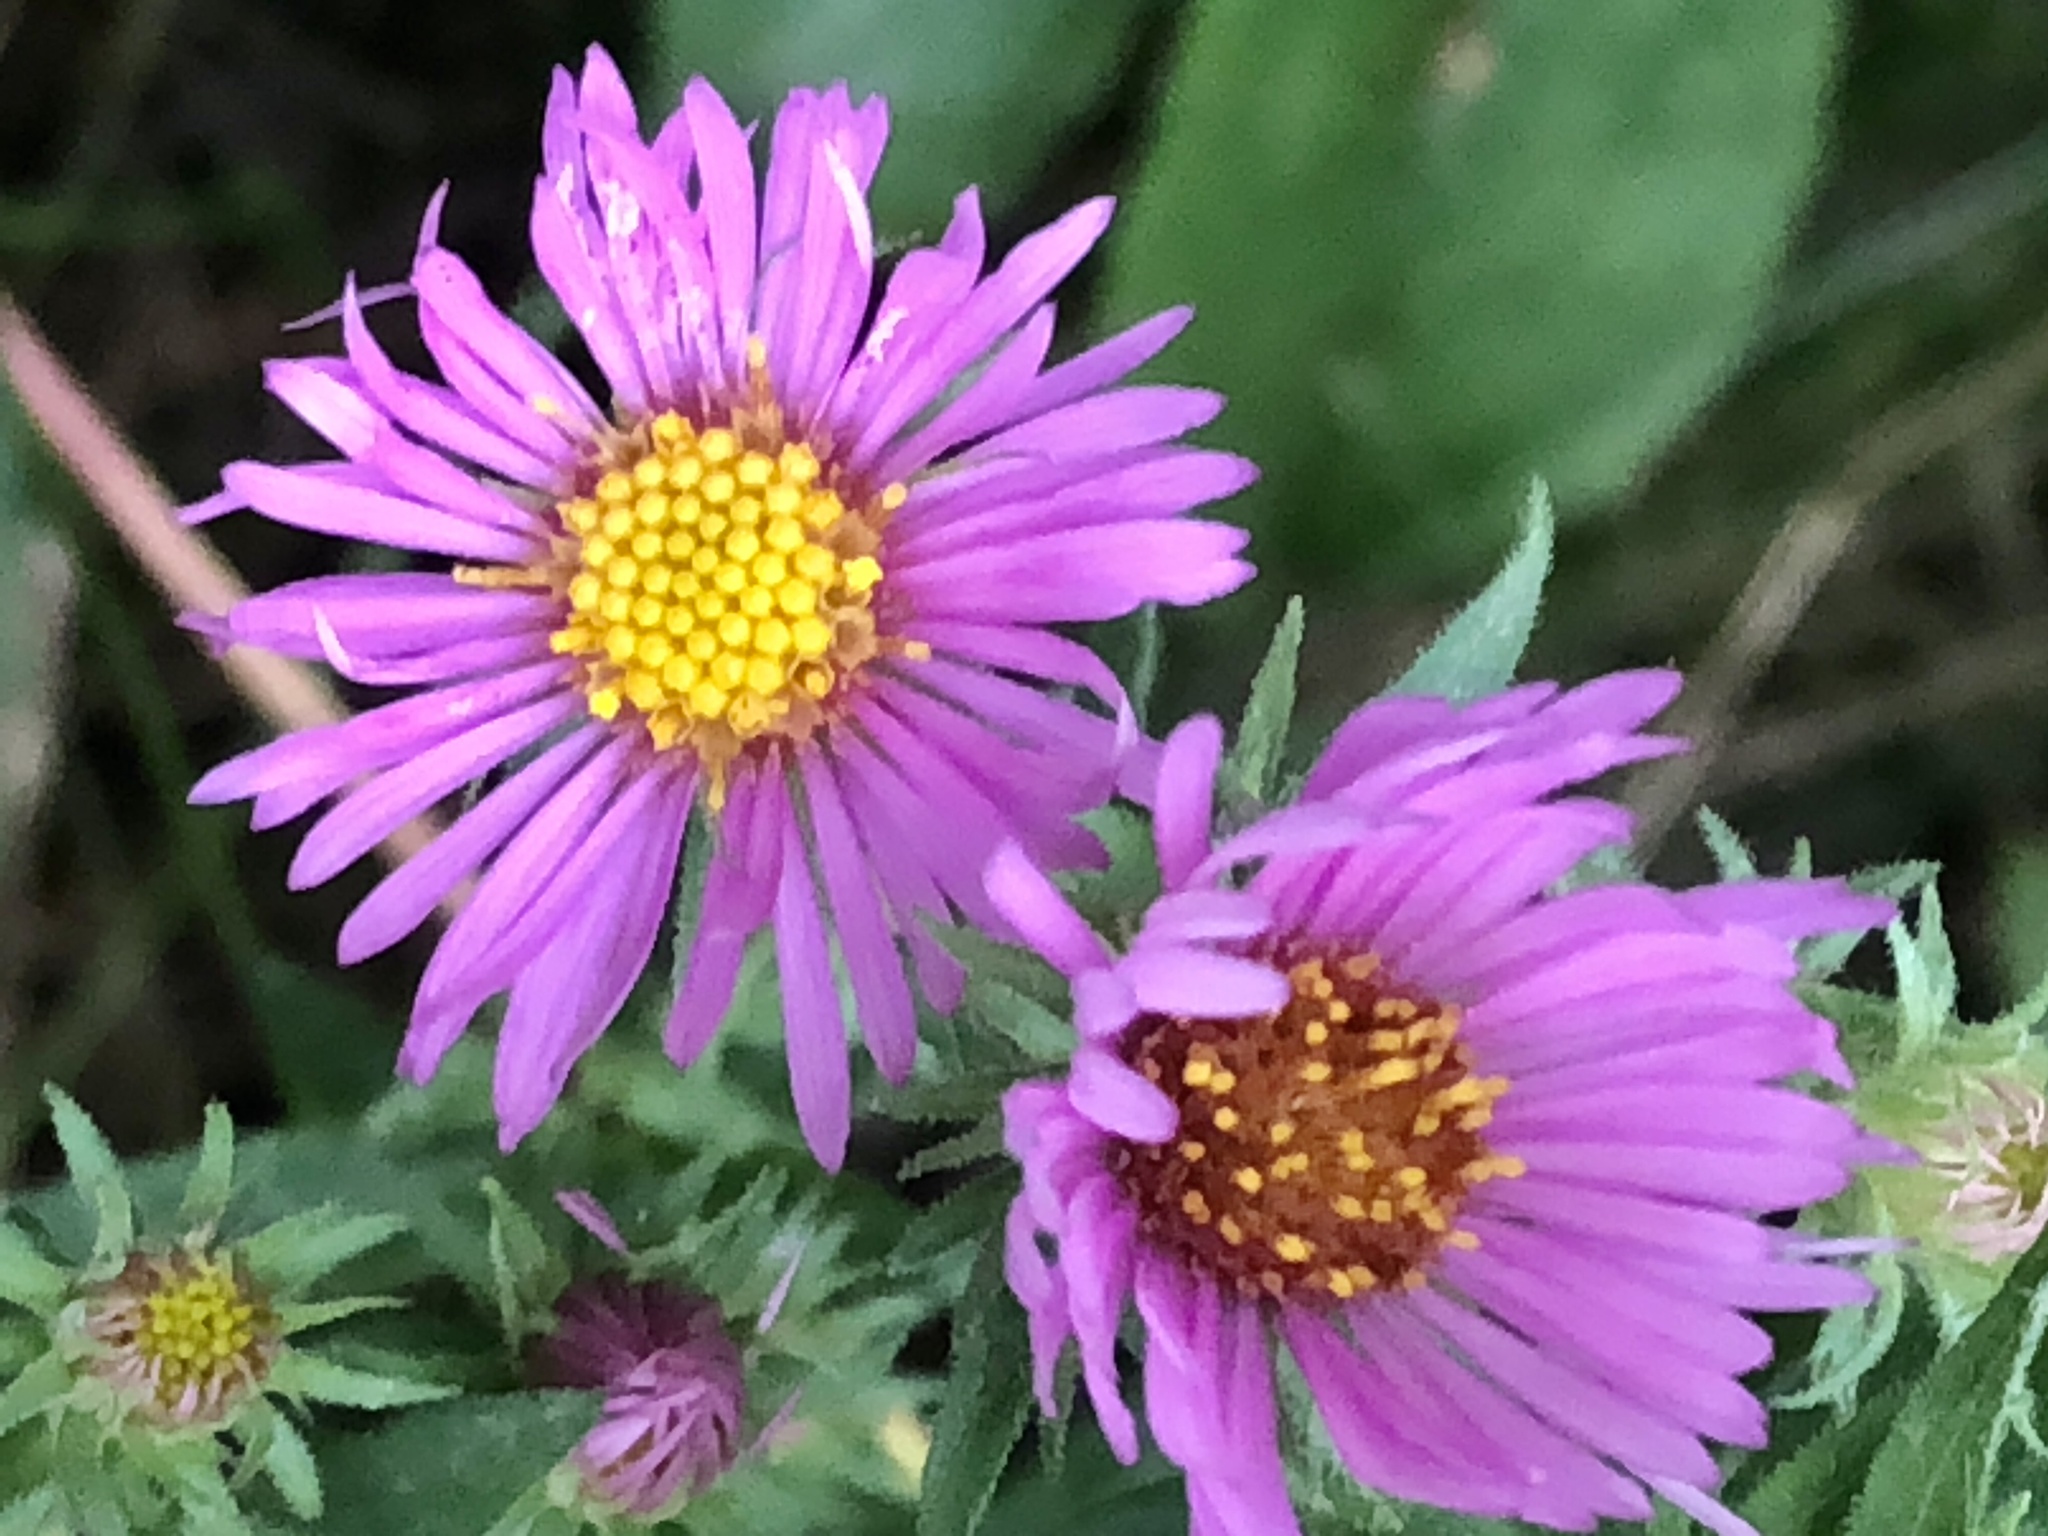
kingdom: Plantae
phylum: Tracheophyta
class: Magnoliopsida
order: Asterales
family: Asteraceae
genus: Symphyotrichum
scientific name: Symphyotrichum novae-angliae
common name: Michaelmas daisy
